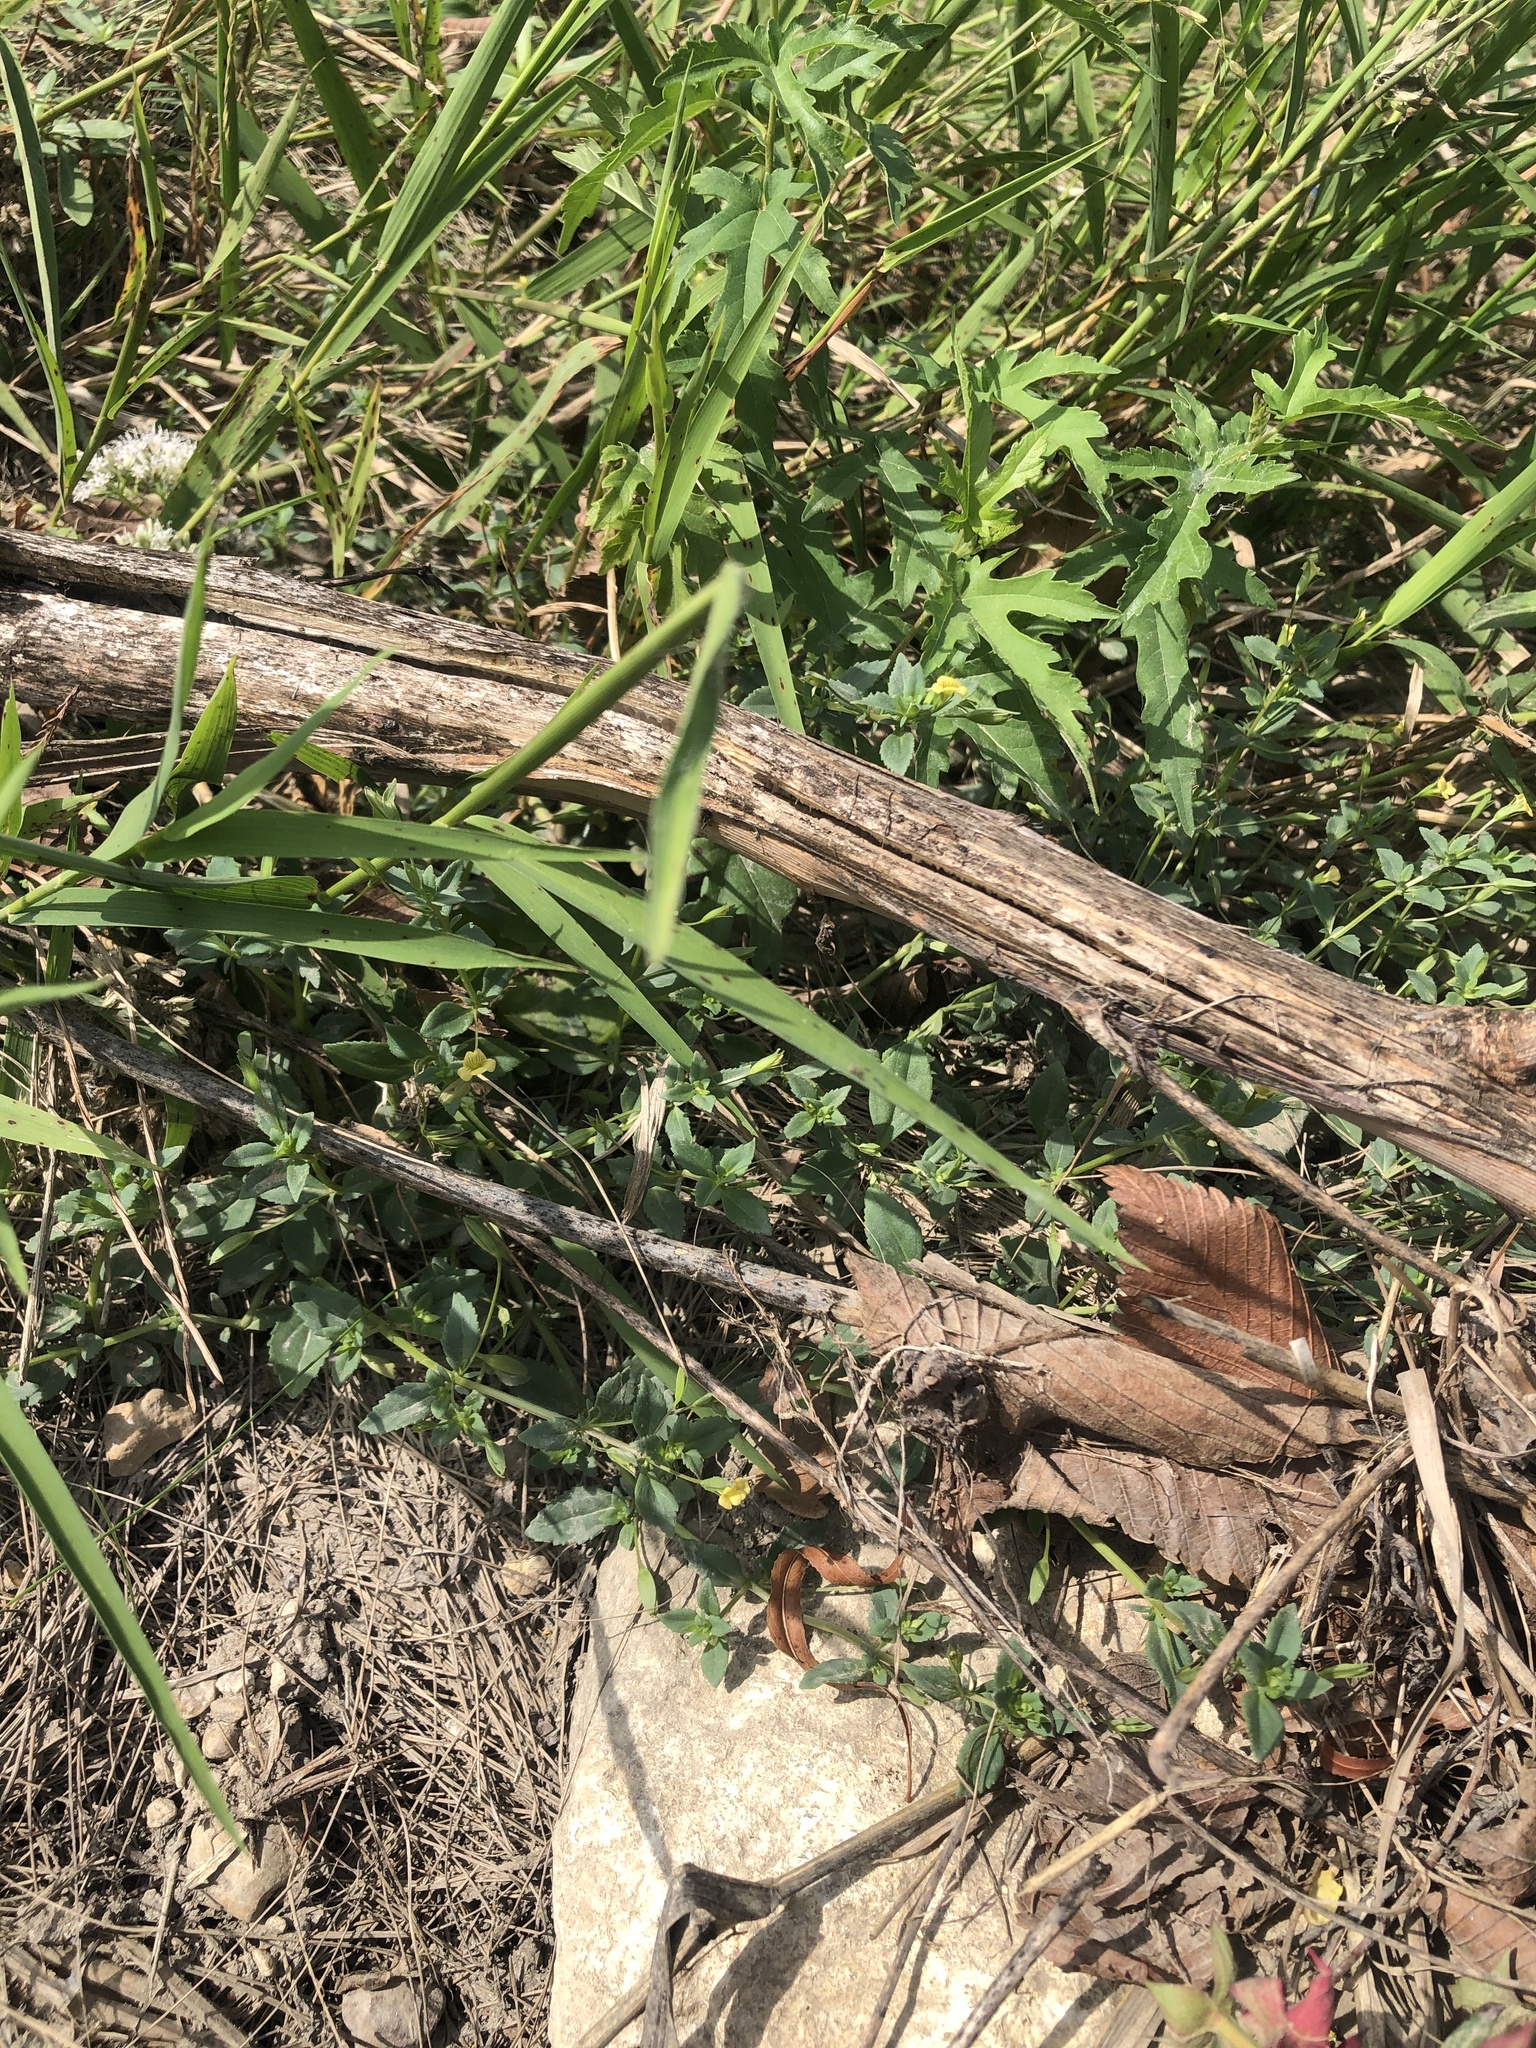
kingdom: Plantae
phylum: Tracheophyta
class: Magnoliopsida
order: Lamiales
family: Plantaginaceae
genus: Mecardonia
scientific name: Mecardonia procumbens
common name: Baby jump-up
